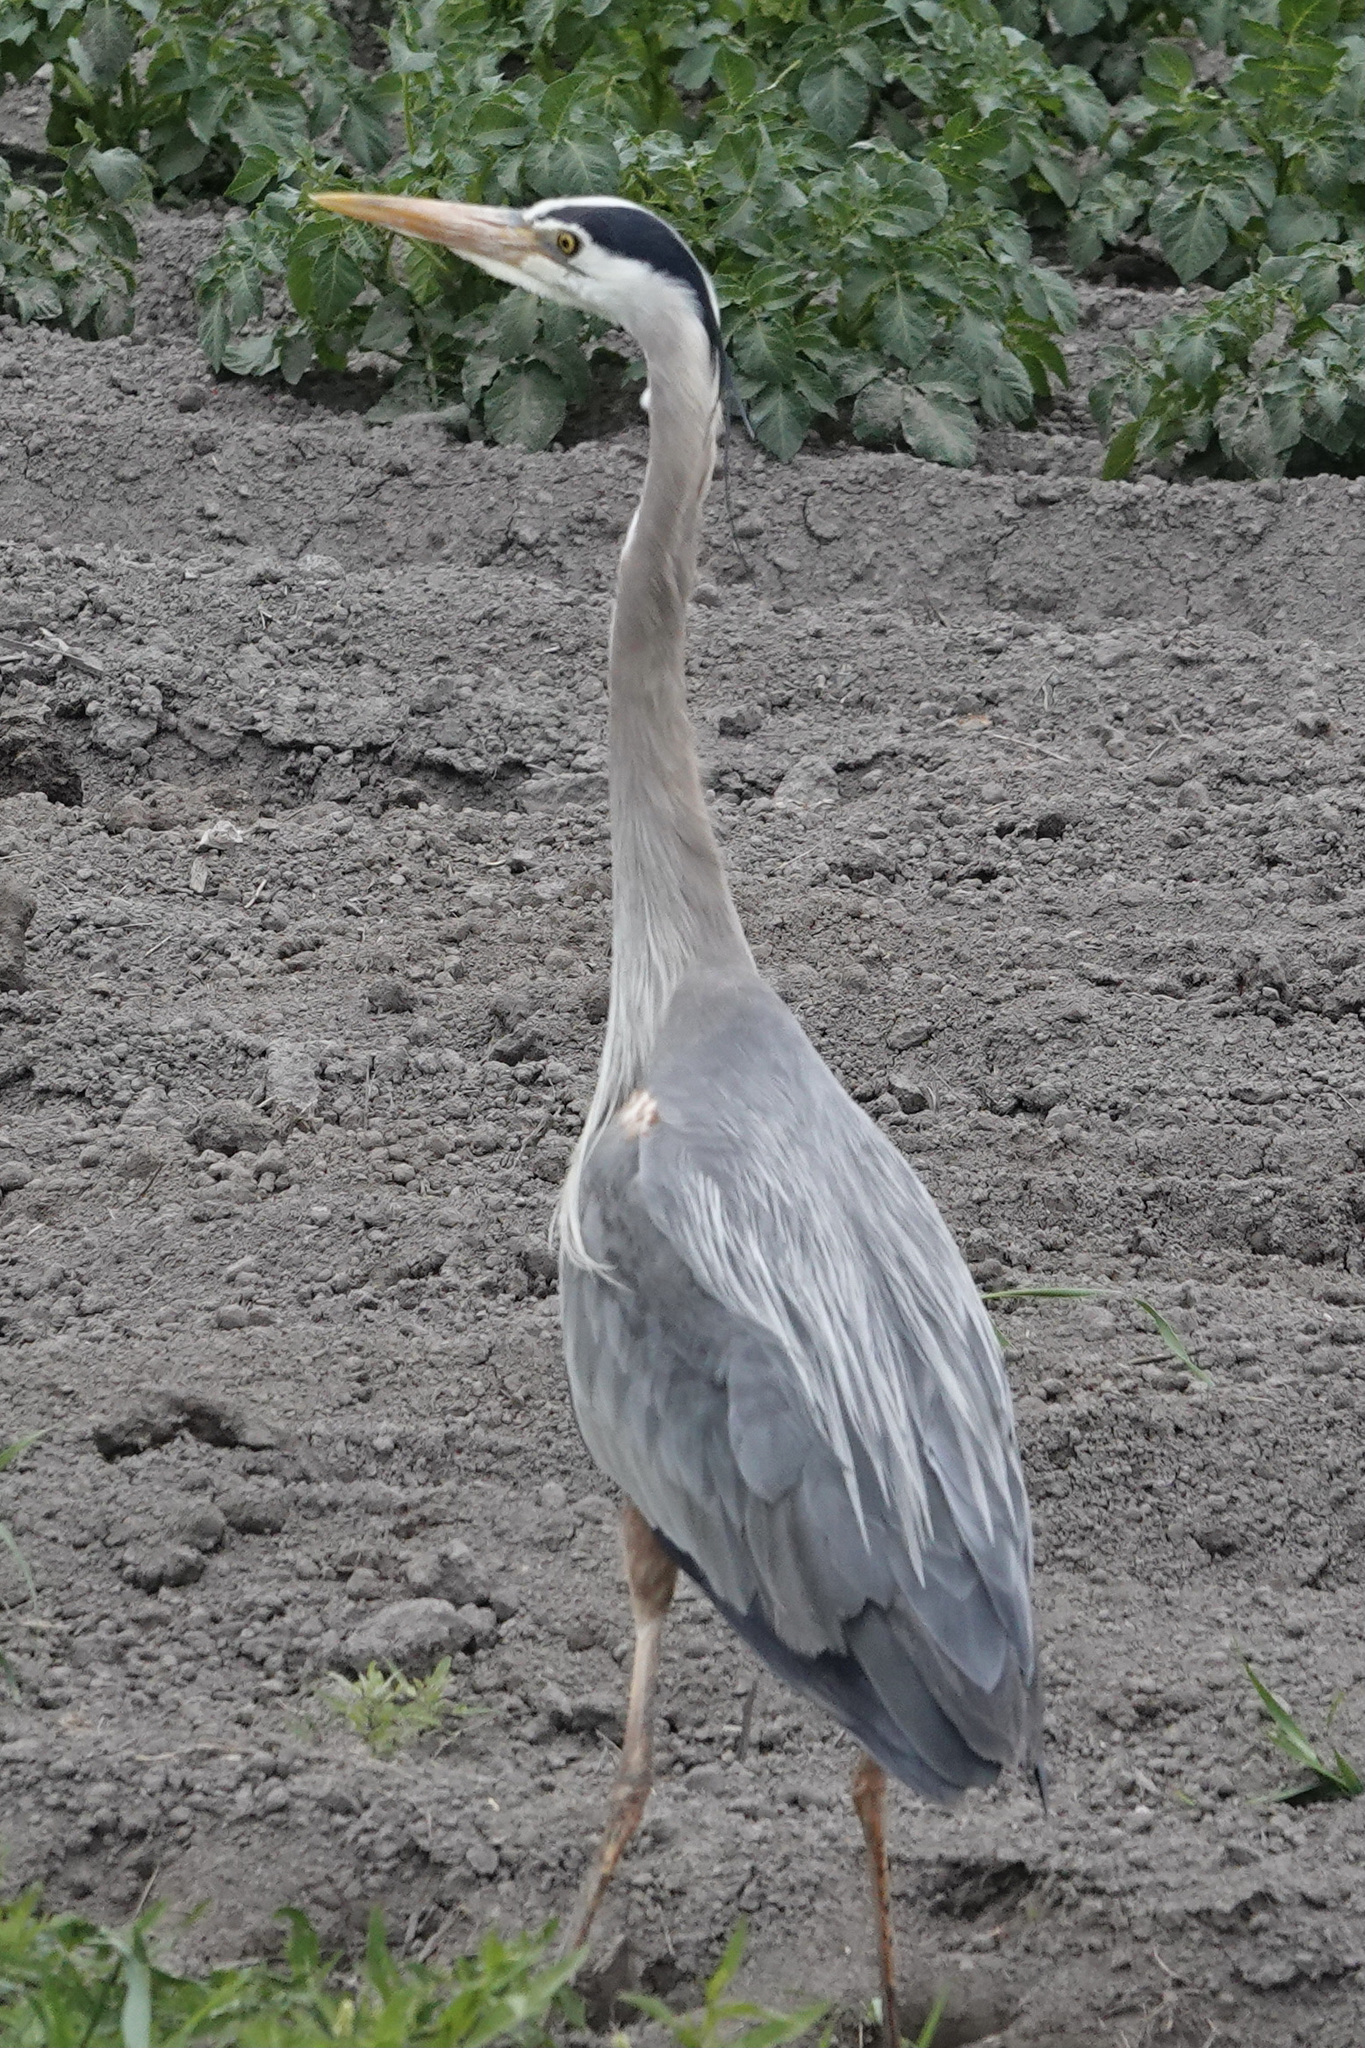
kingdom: Animalia
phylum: Chordata
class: Aves
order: Pelecaniformes
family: Ardeidae
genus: Ardea
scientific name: Ardea herodias
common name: Great blue heron
